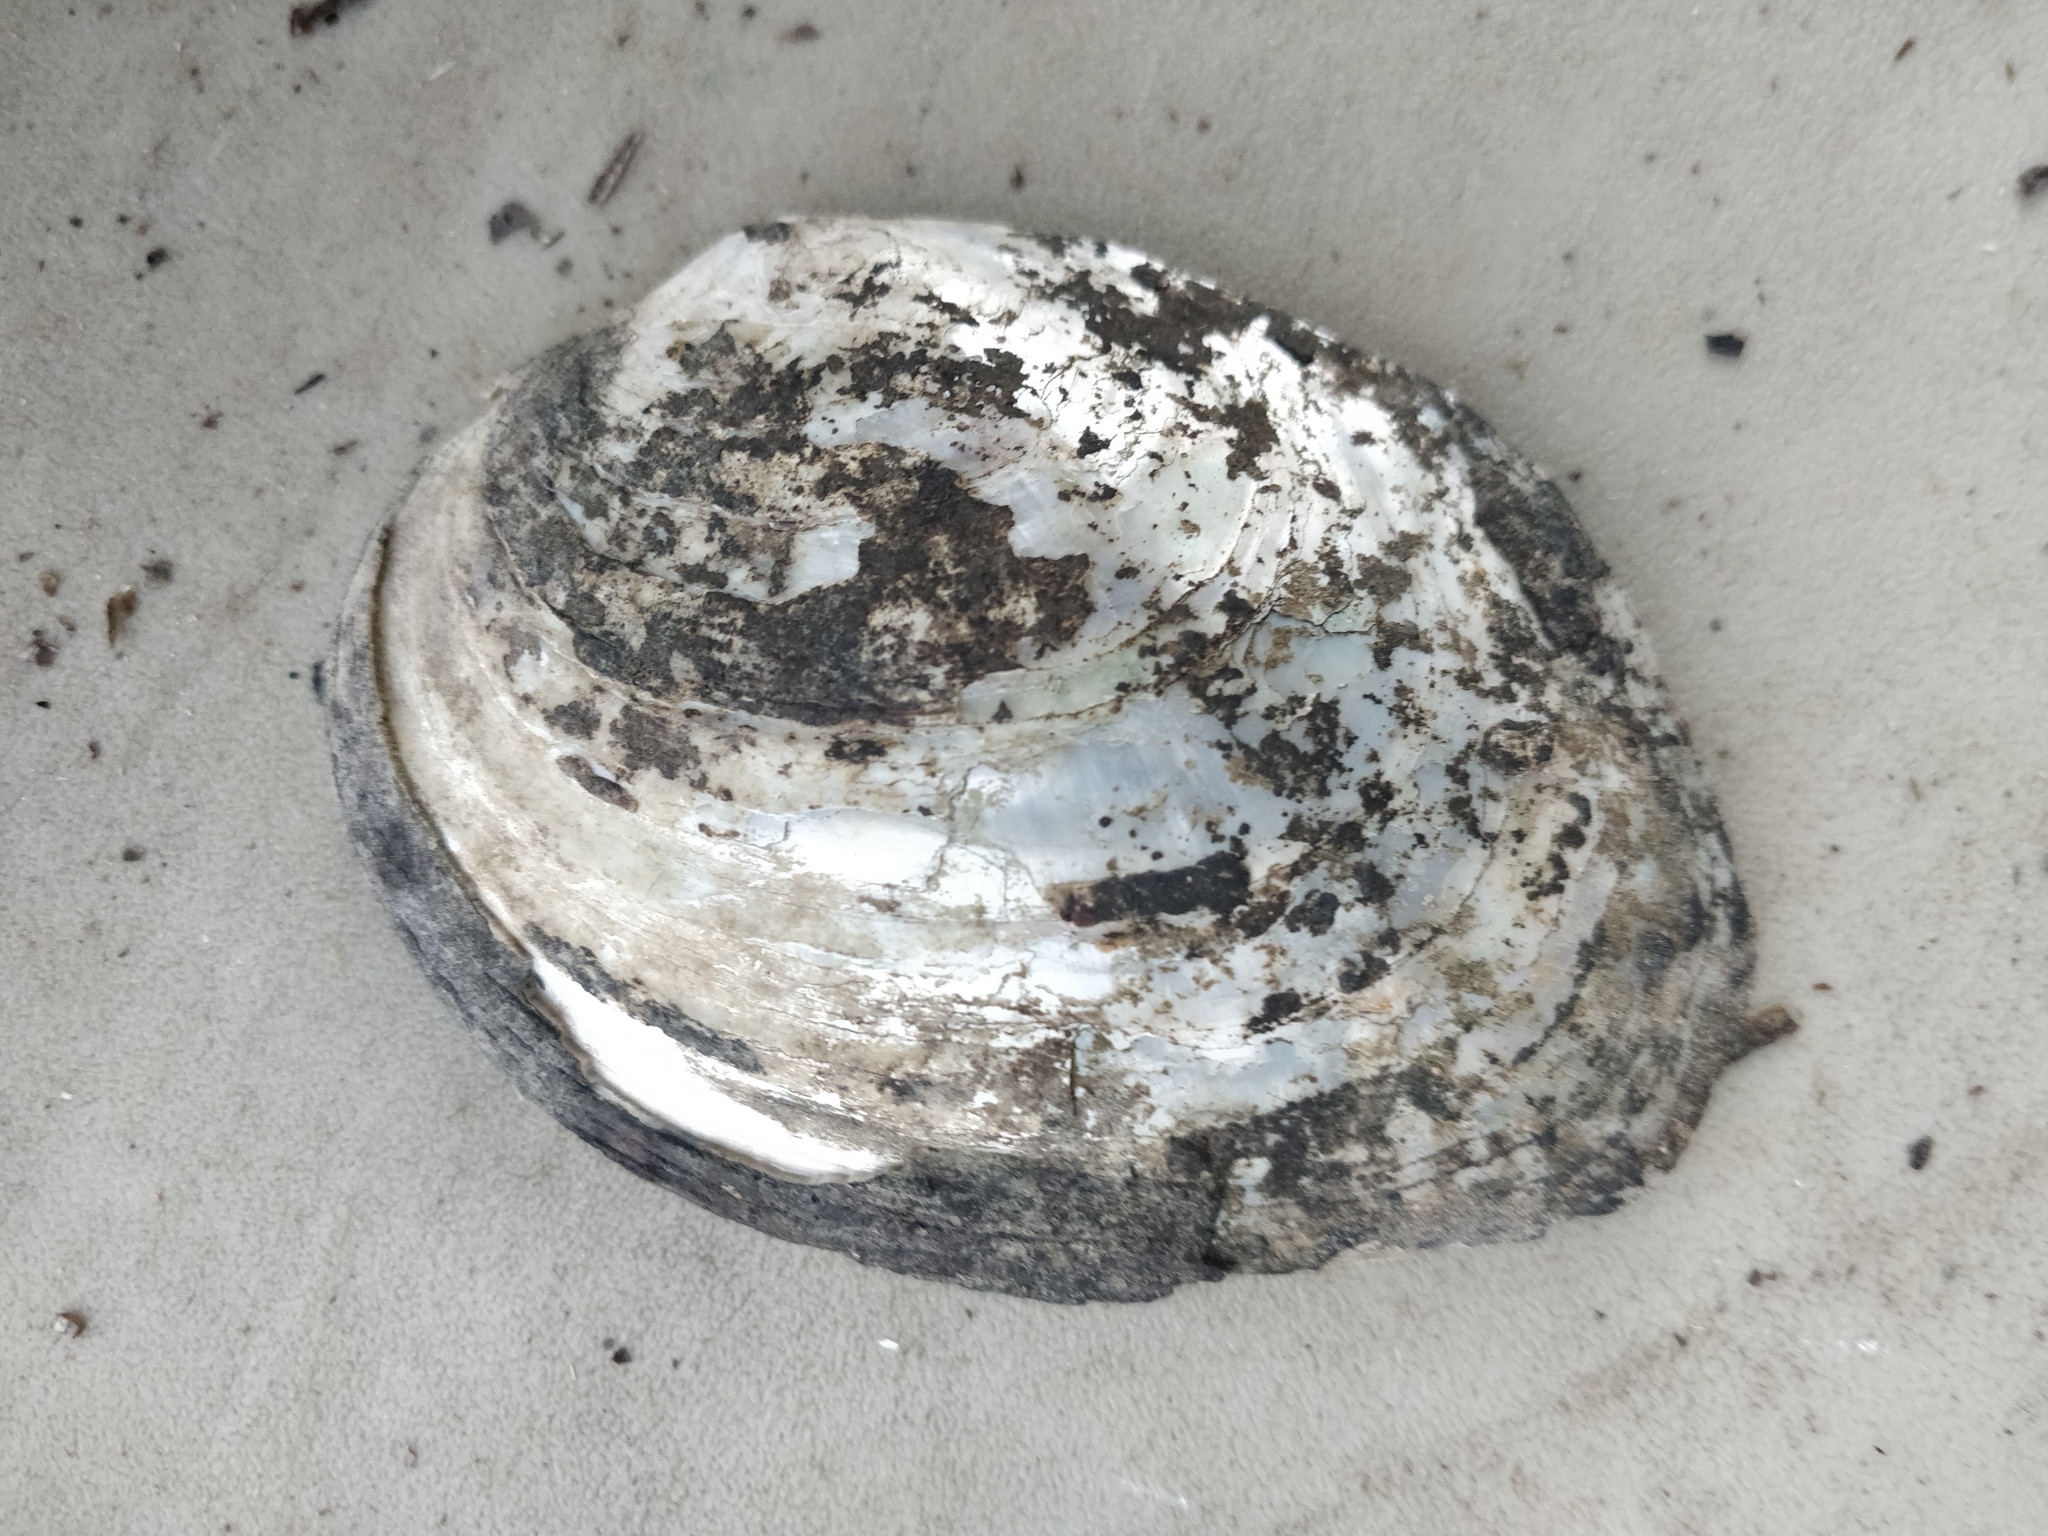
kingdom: Animalia
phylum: Mollusca
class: Bivalvia
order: Unionida
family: Unionidae
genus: Lasmigona
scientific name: Lasmigona complanata
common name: White heelsplitter
